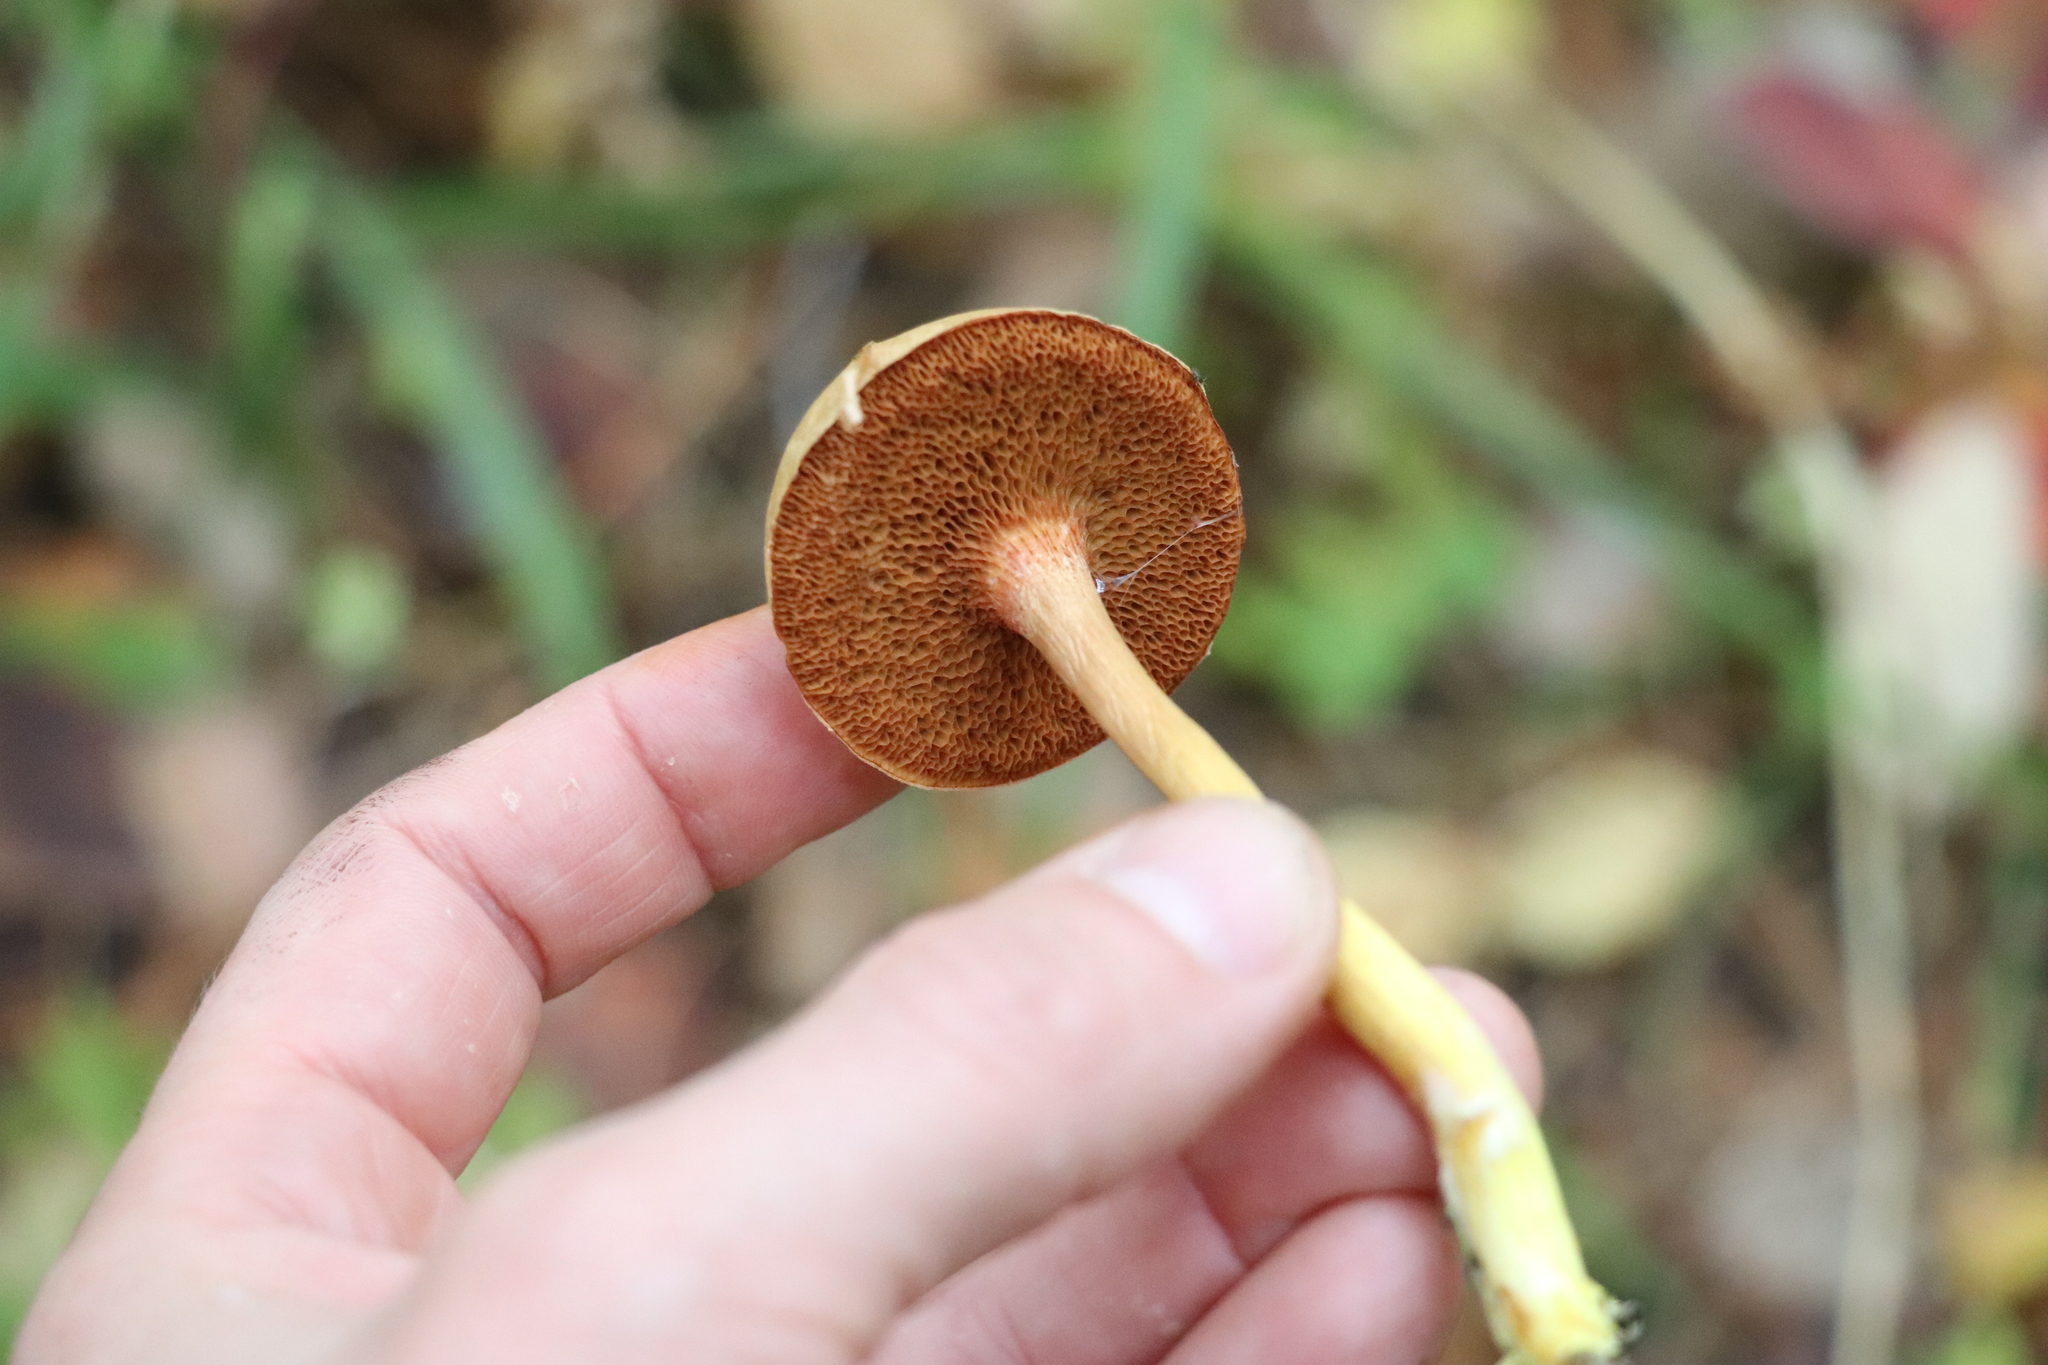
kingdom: Fungi
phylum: Basidiomycota
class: Agaricomycetes
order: Boletales
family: Boletaceae
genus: Chalciporus
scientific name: Chalciporus piperatus
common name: Peppery bolete
